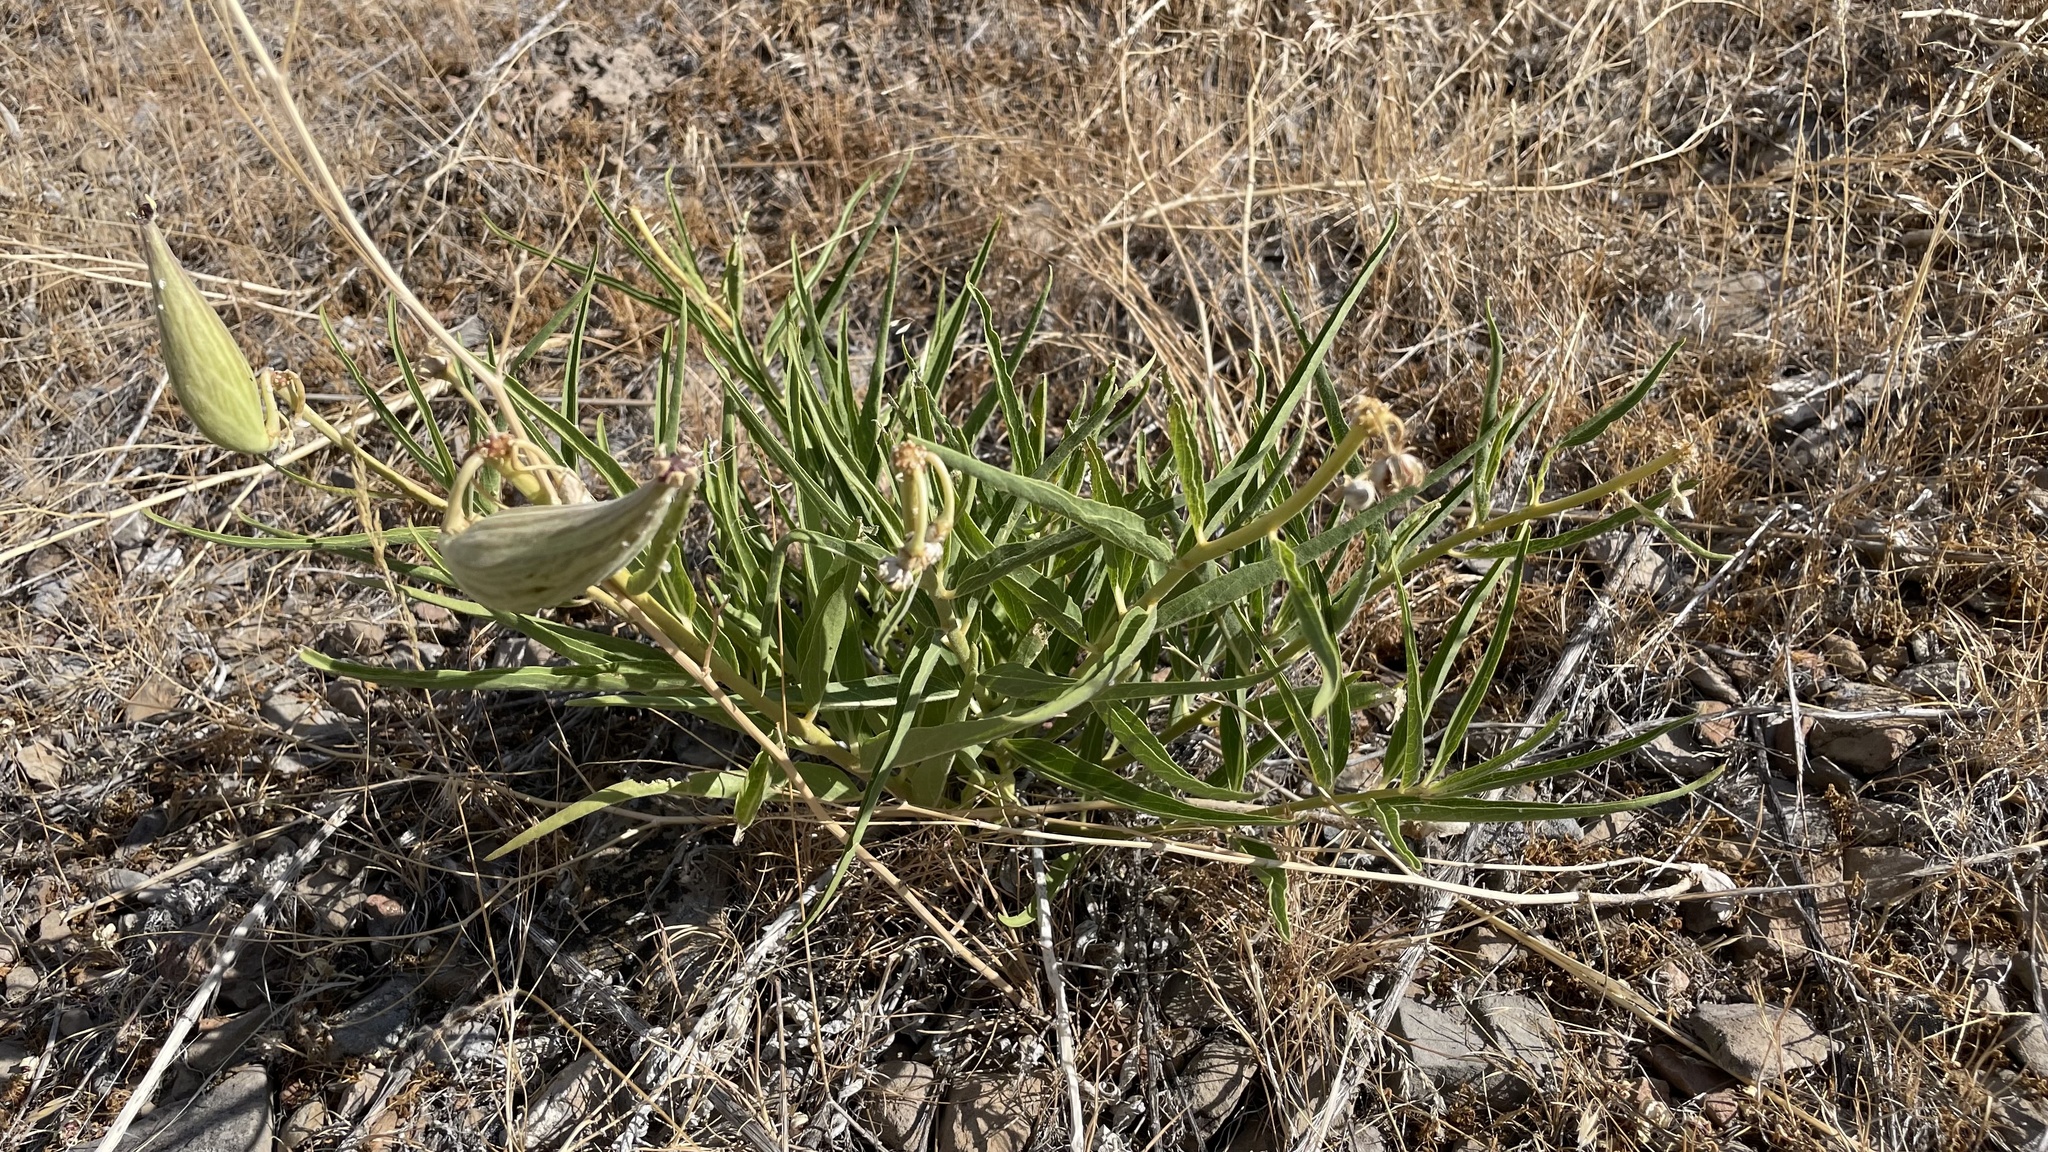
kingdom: Plantae
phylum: Tracheophyta
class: Magnoliopsida
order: Gentianales
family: Apocynaceae
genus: Asclepias
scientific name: Asclepias asperula
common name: Antelope horns
